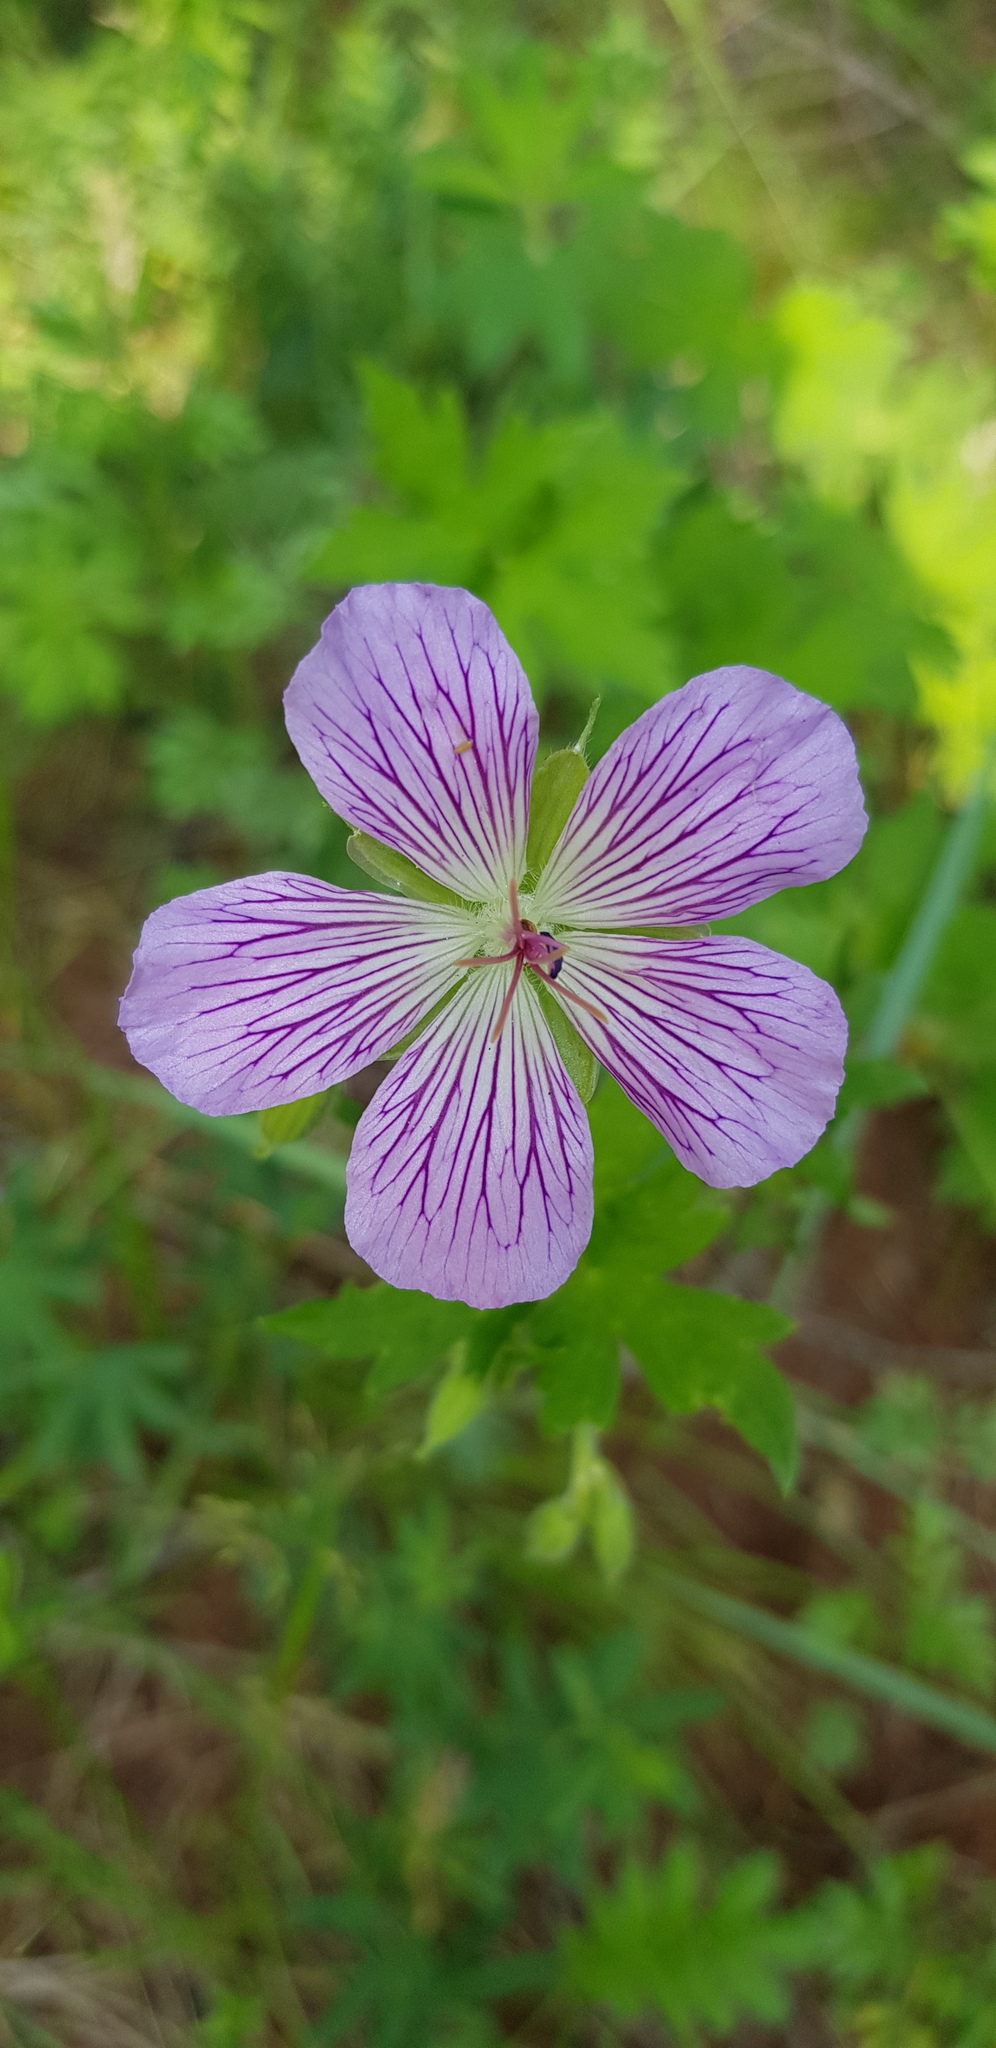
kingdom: Plantae
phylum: Tracheophyta
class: Magnoliopsida
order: Geraniales
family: Geraniaceae
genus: Geranium
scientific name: Geranium wlassovianum
